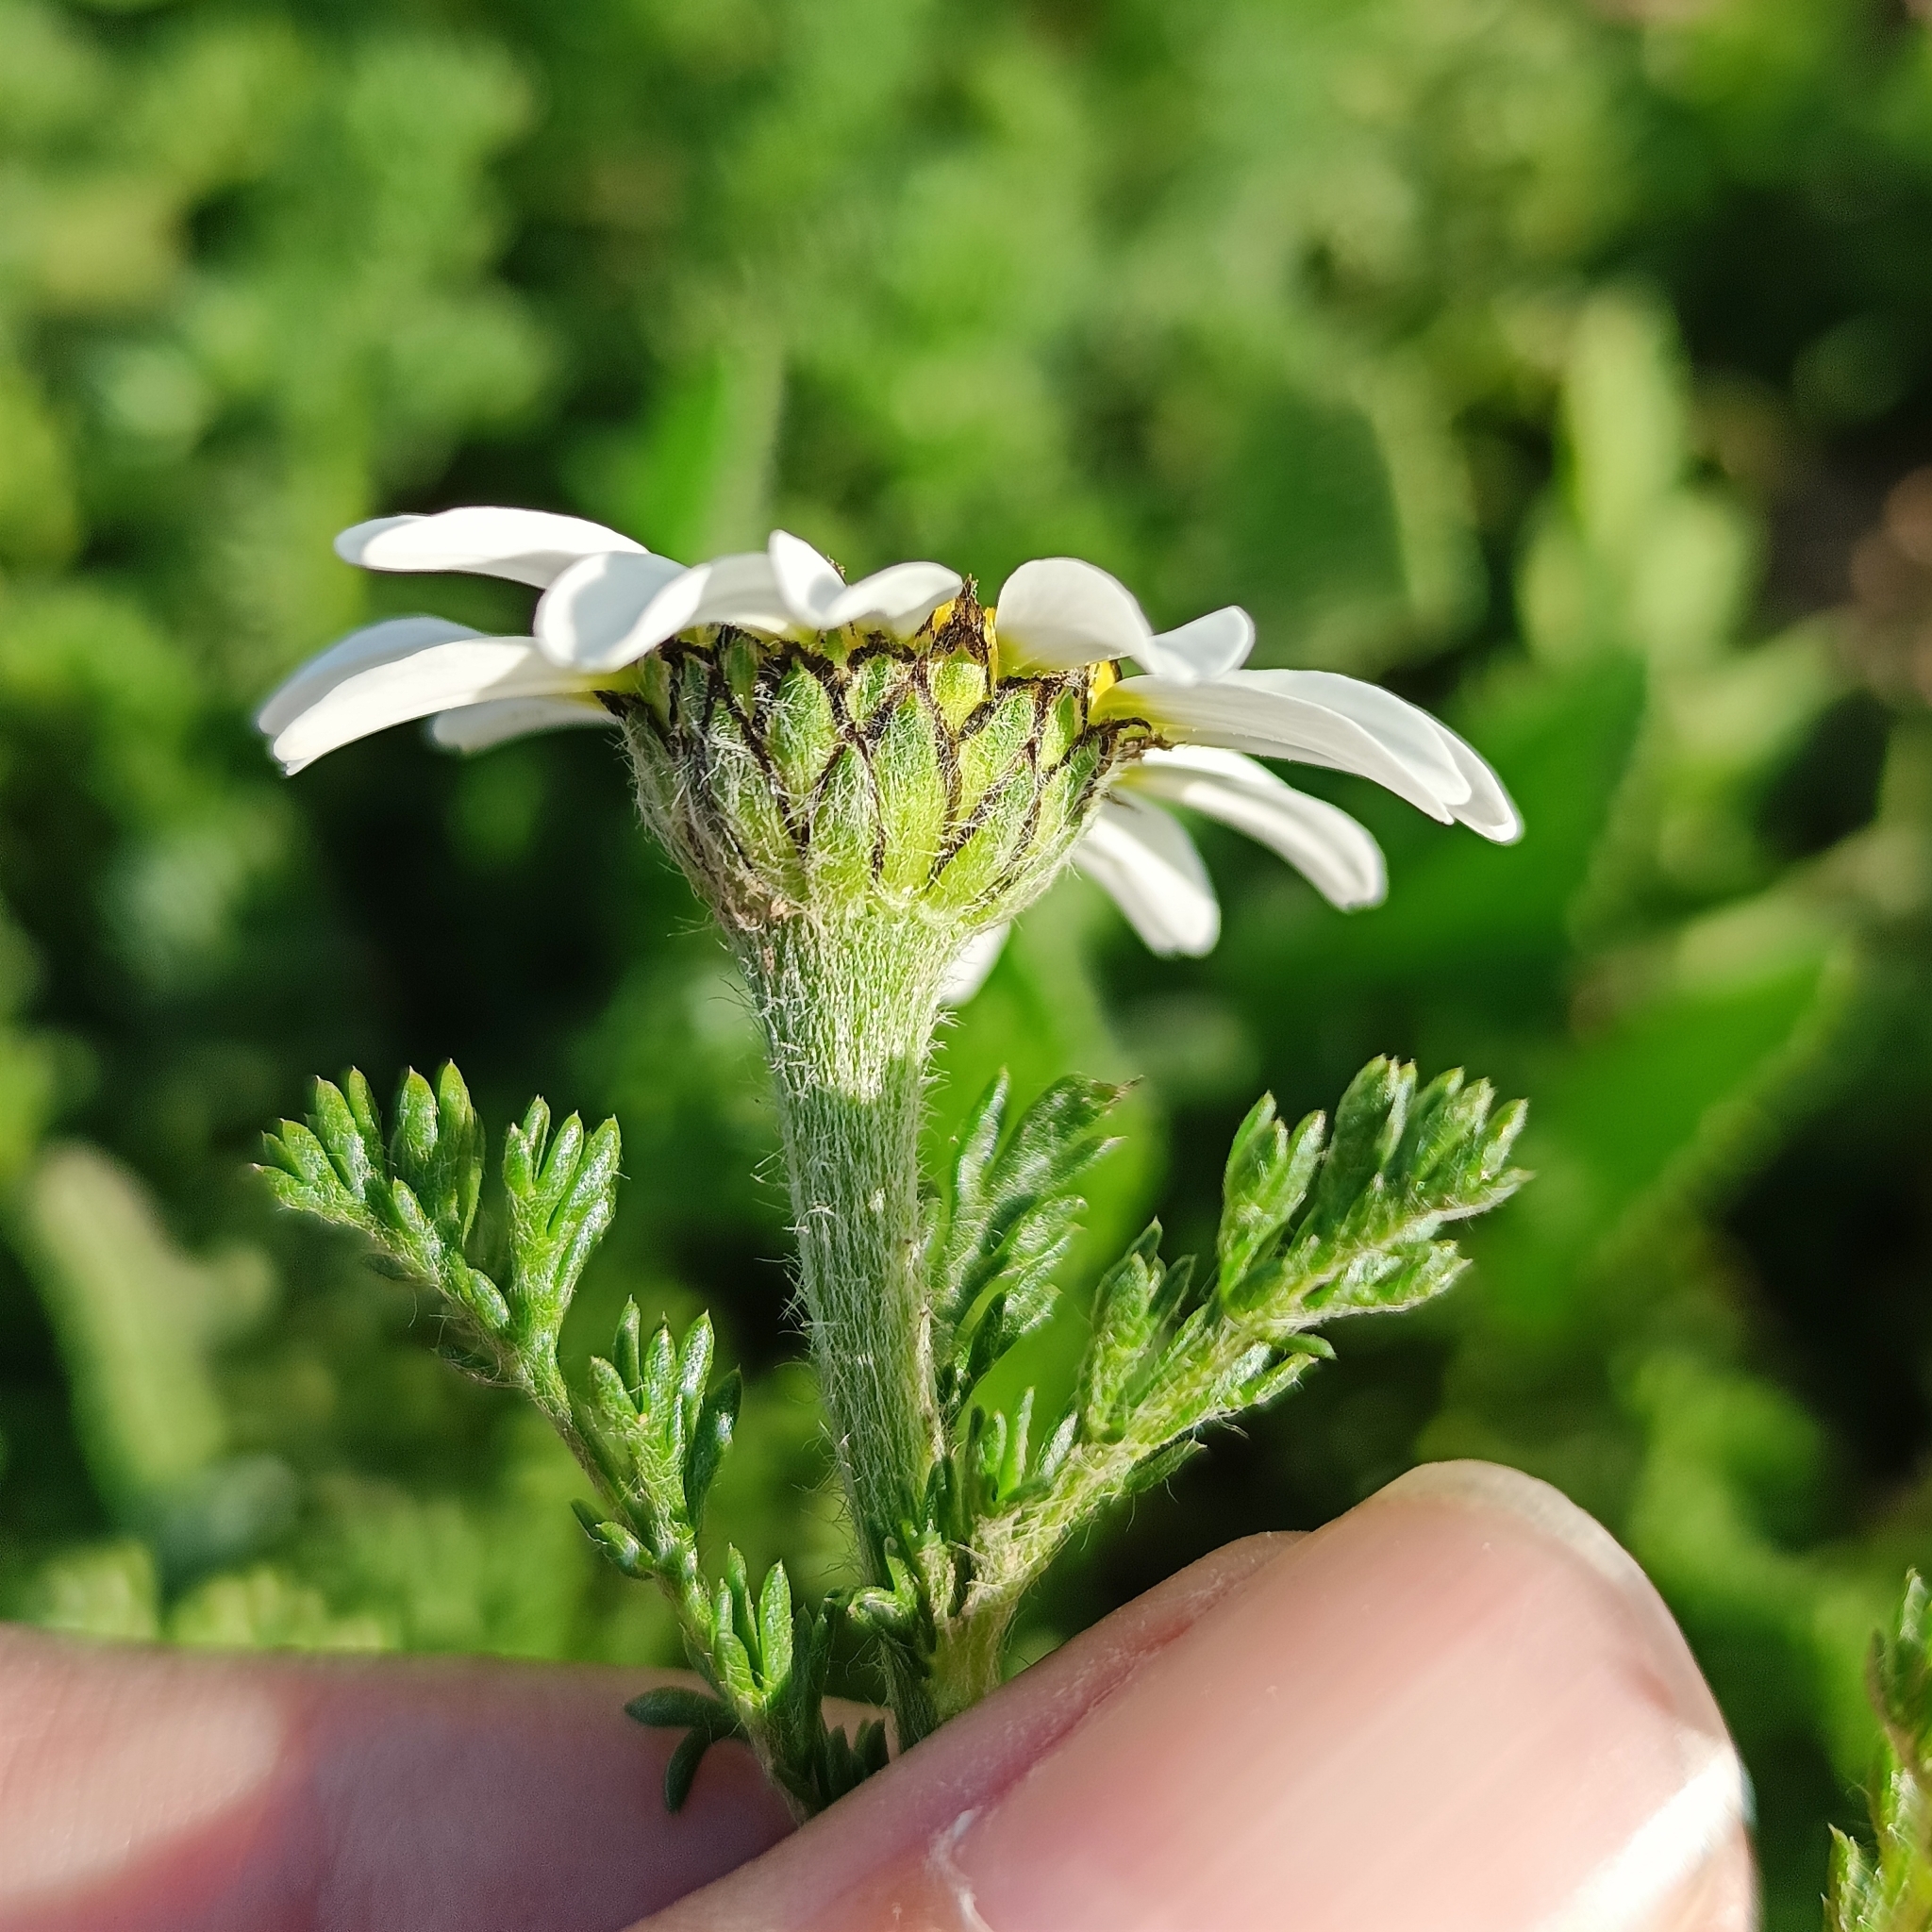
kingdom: Plantae
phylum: Tracheophyta
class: Magnoliopsida
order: Asterales
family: Asteraceae
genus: Anacyclus
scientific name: Anacyclus clavatus
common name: Whitebuttons
